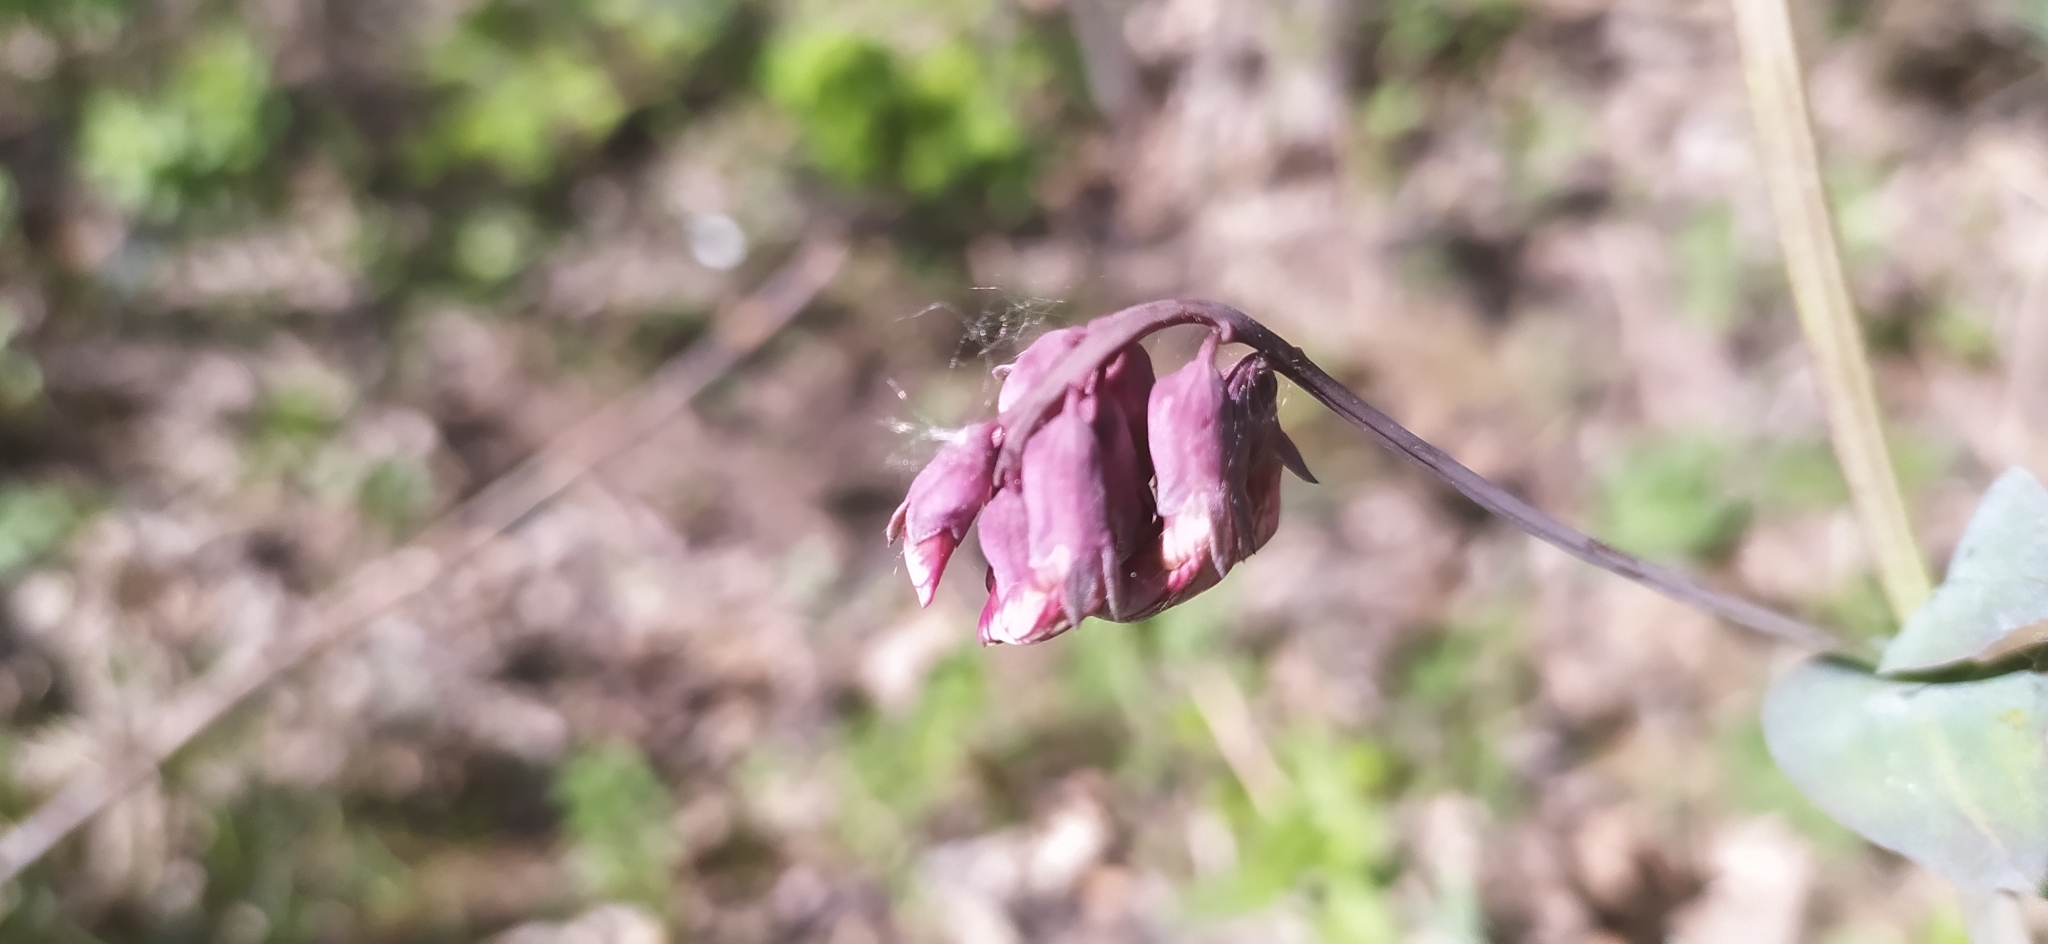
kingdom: Plantae
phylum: Tracheophyta
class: Magnoliopsida
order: Fabales
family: Fabaceae
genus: Lathyrus
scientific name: Lathyrus pisiformis
